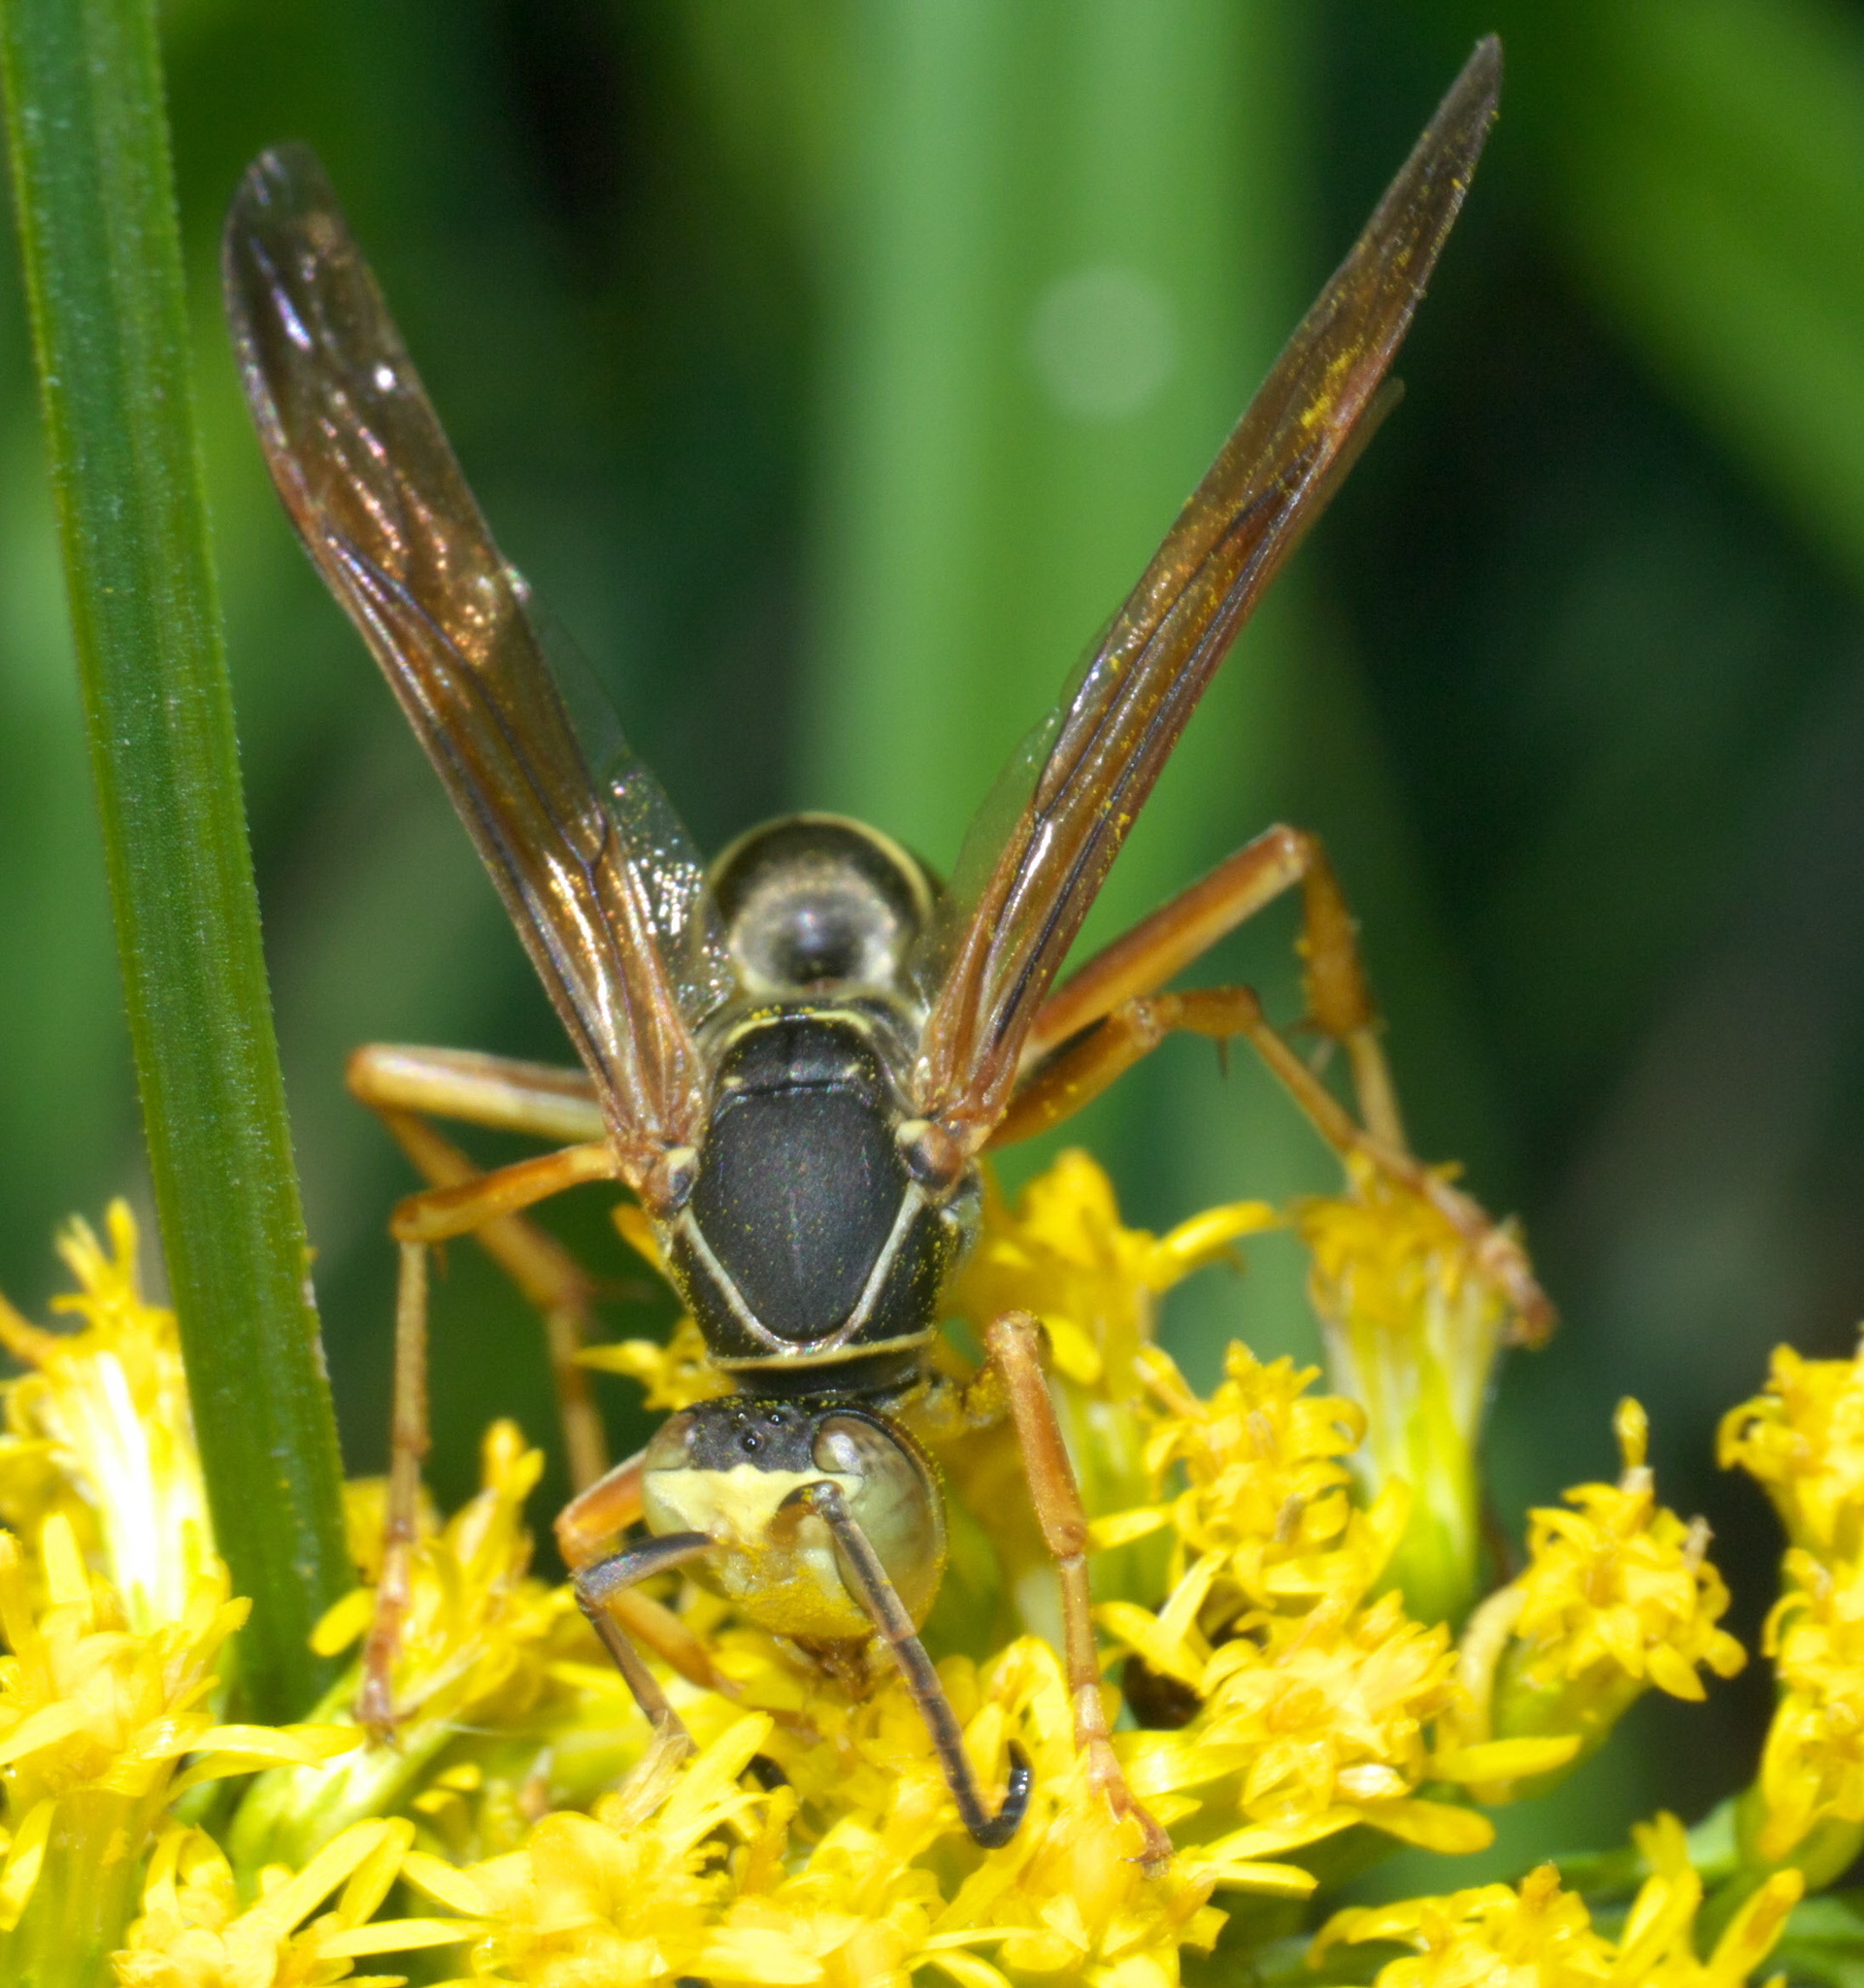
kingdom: Animalia
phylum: Arthropoda
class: Insecta
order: Hymenoptera
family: Eumenidae
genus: Polistes
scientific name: Polistes fuscatus
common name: Dark paper wasp
